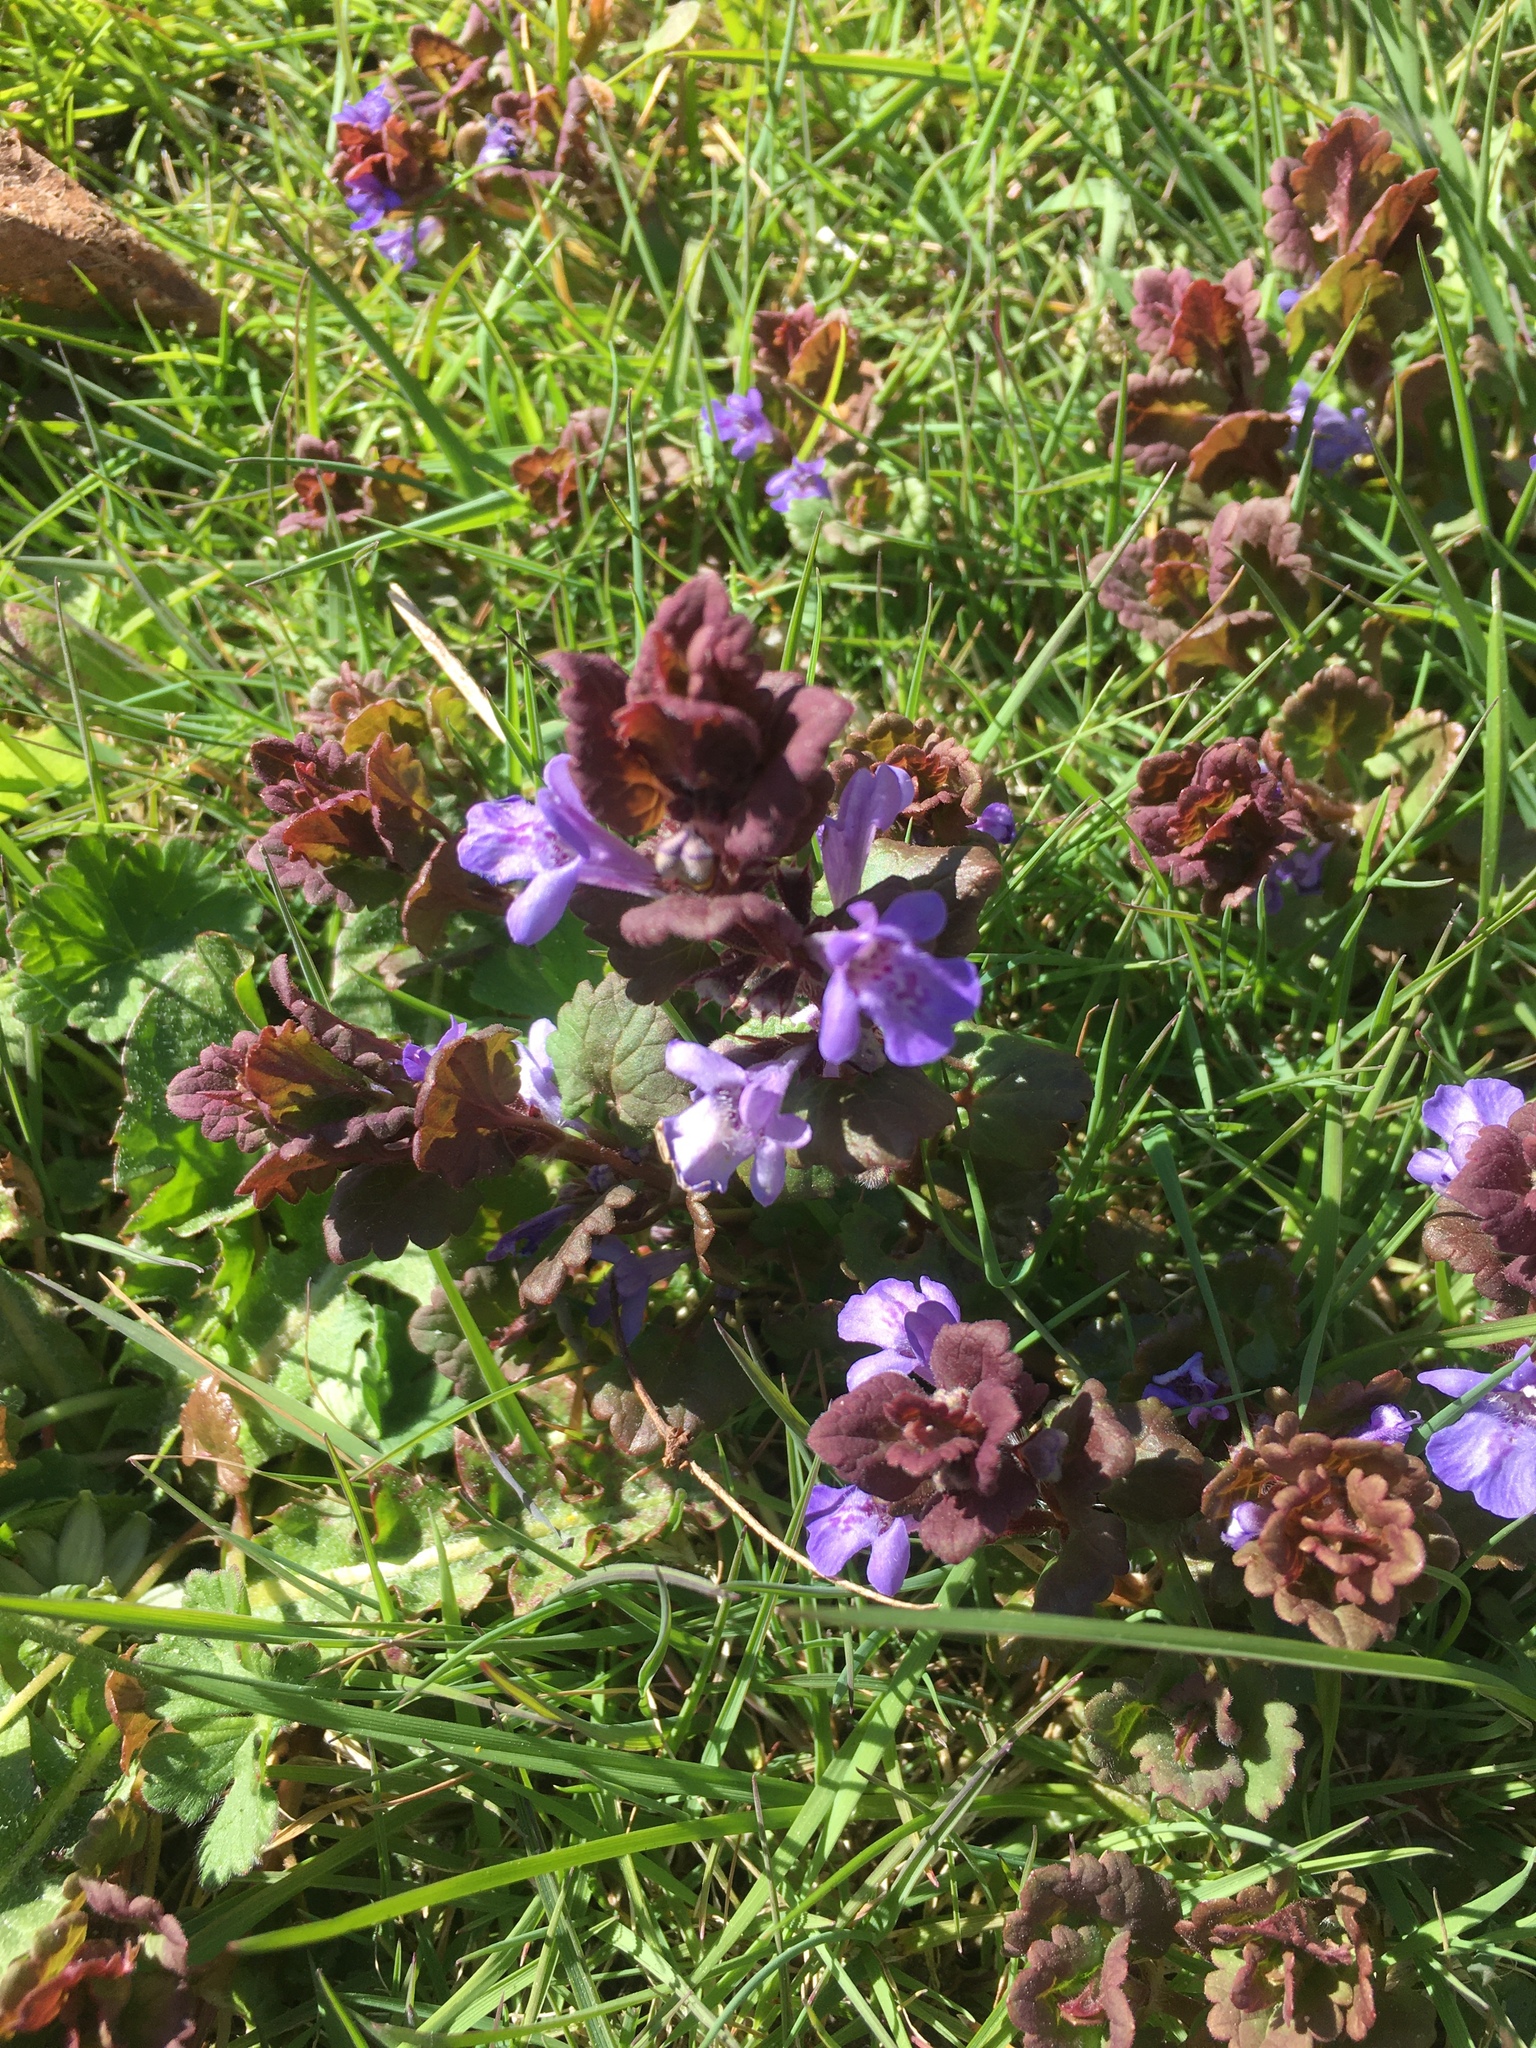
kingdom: Plantae
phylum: Tracheophyta
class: Magnoliopsida
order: Lamiales
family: Lamiaceae
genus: Glechoma
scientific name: Glechoma hederacea
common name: Ground ivy
